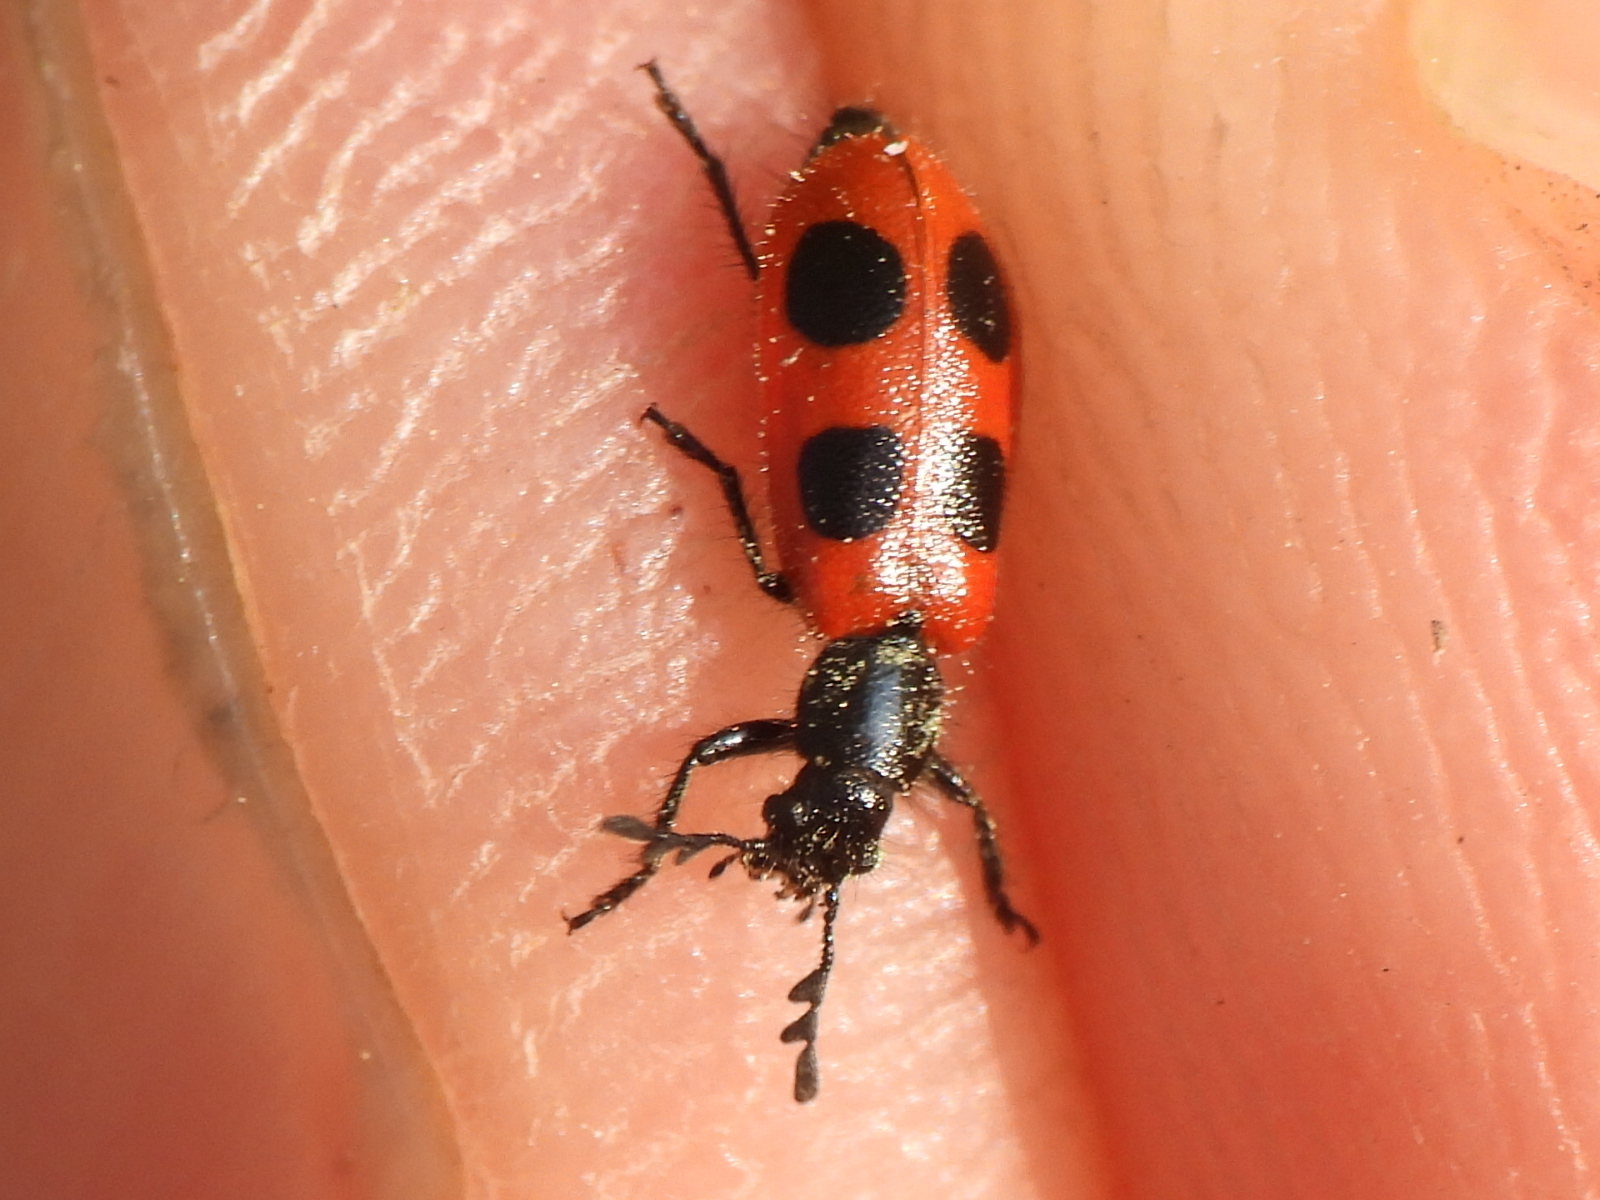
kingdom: Animalia
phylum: Arthropoda
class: Insecta
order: Coleoptera
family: Cleridae
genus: Pelonides
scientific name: Pelonides quadripunctatus
